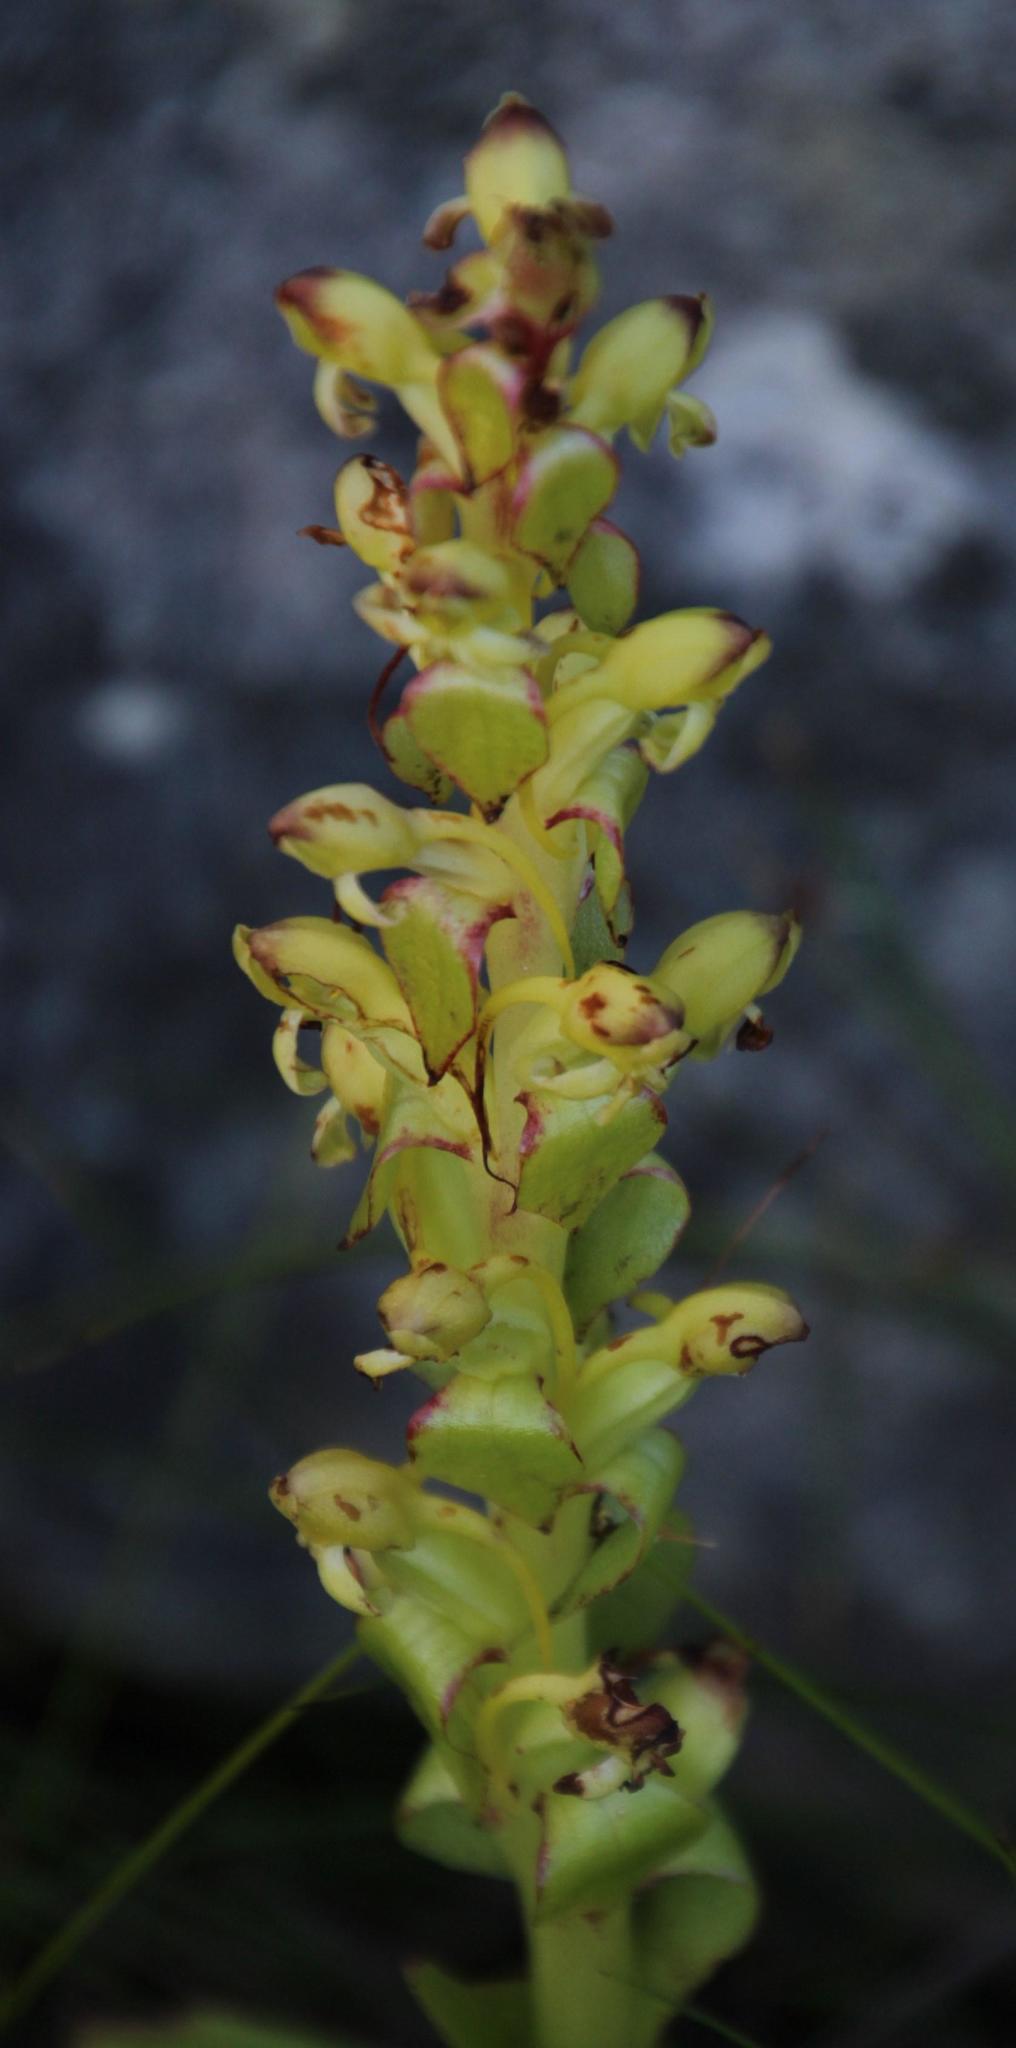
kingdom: Plantae
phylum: Tracheophyta
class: Liliopsida
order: Asparagales
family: Orchidaceae
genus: Satyrium
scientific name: Satyrium odorum
